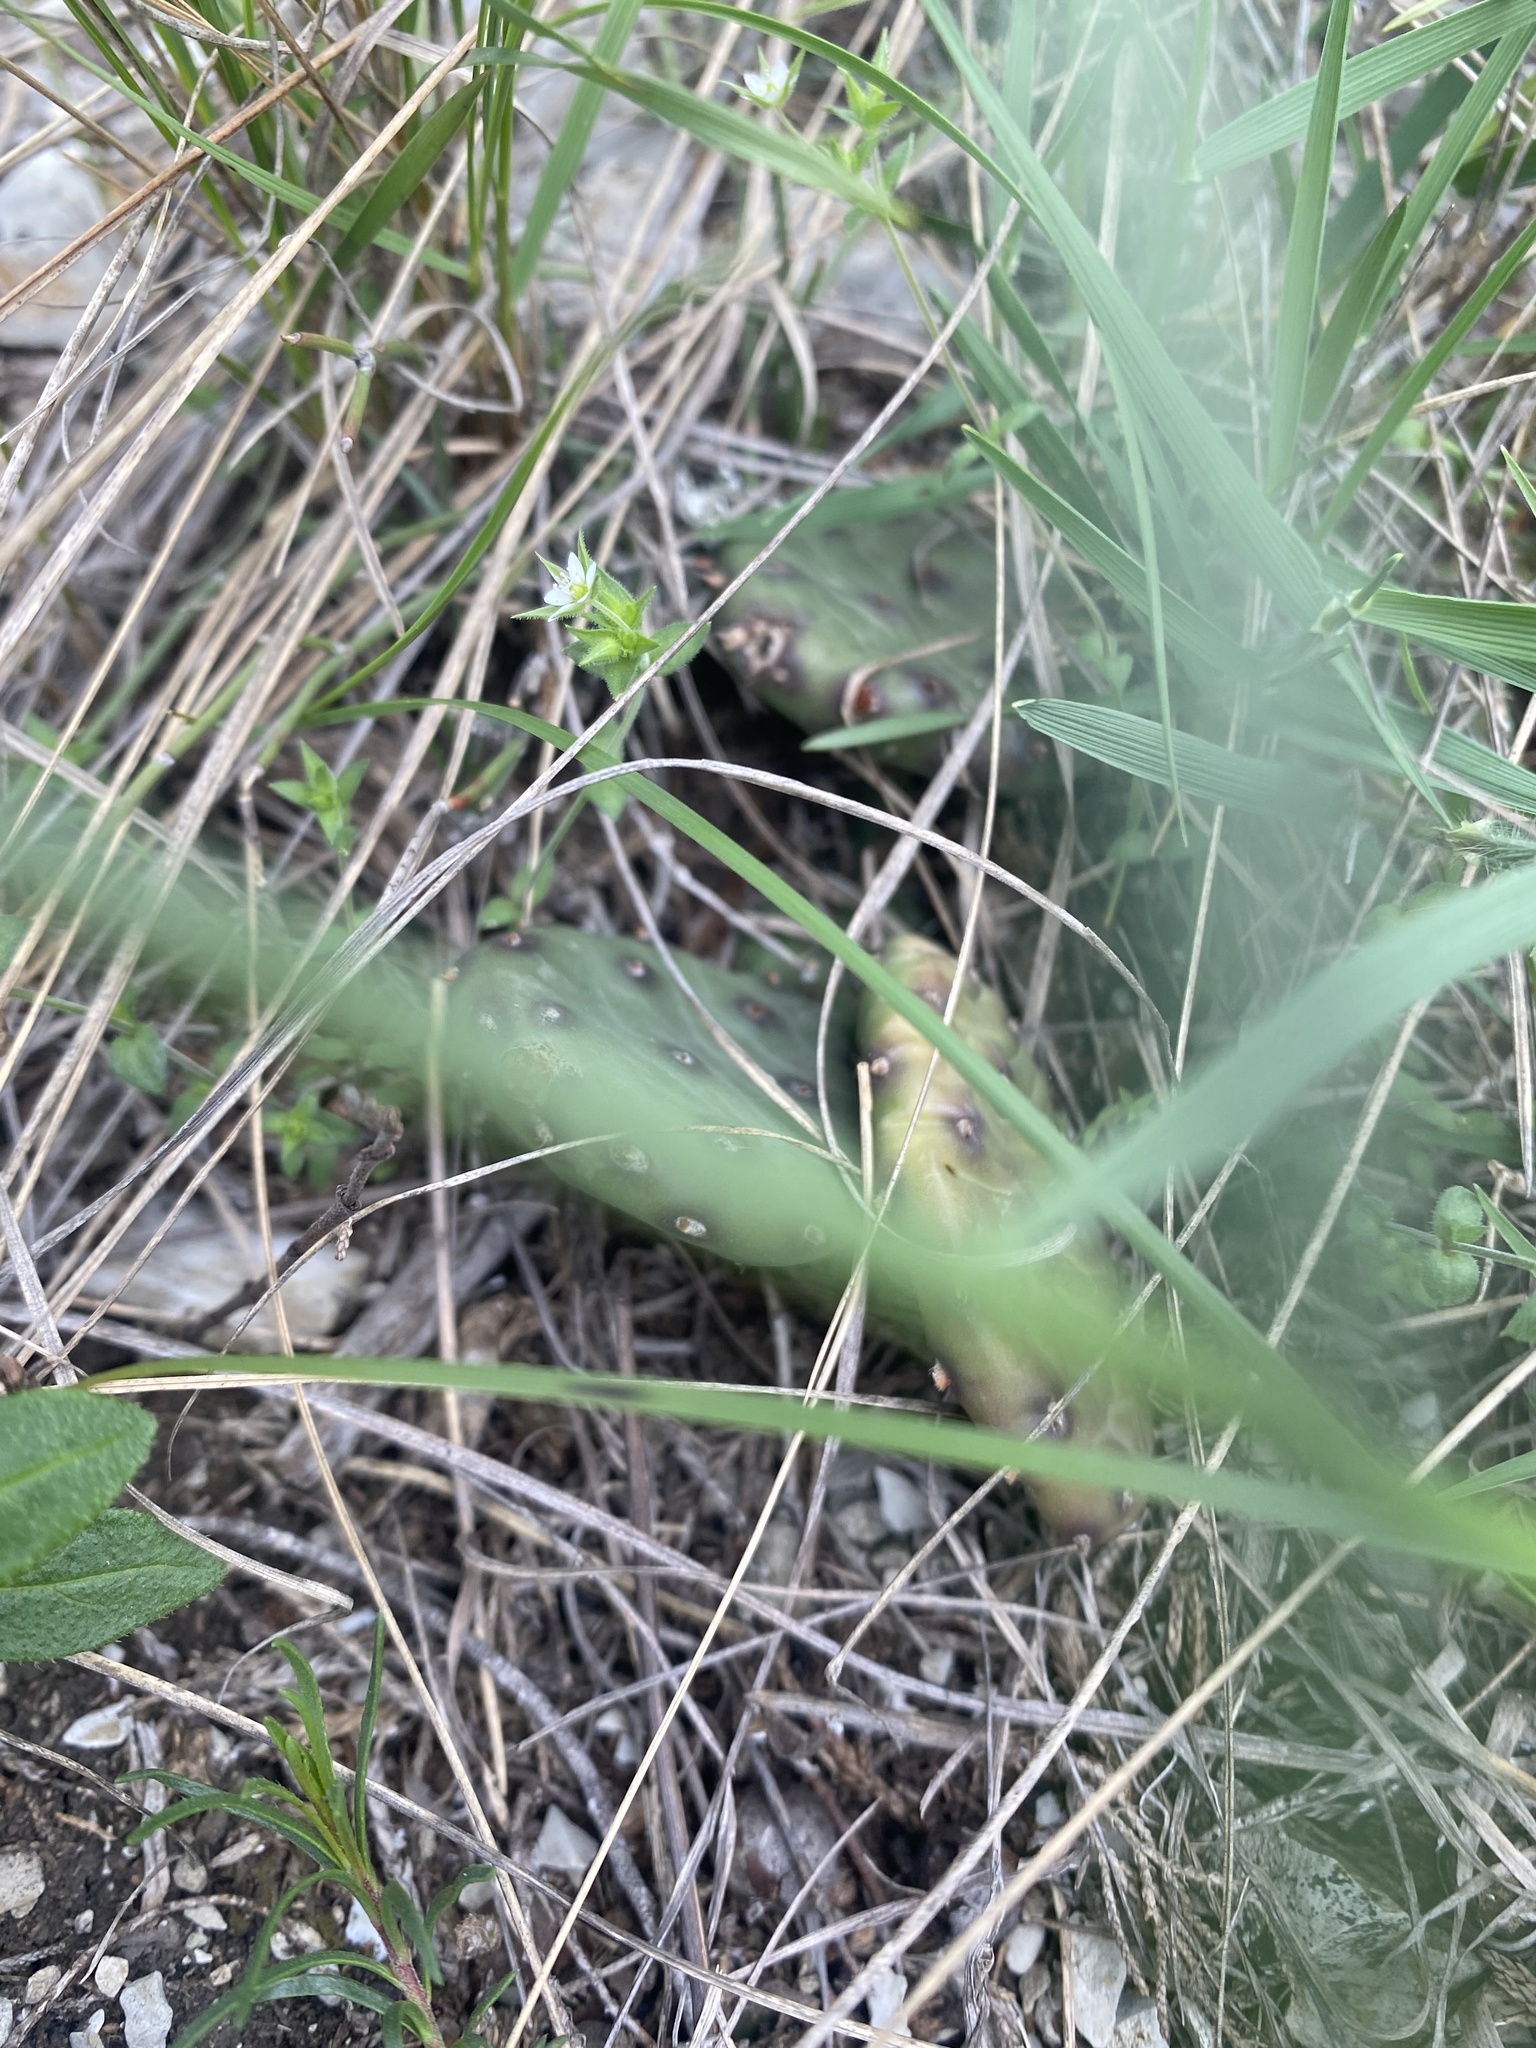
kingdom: Plantae
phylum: Tracheophyta
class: Magnoliopsida
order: Caryophyllales
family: Cactaceae
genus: Opuntia
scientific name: Opuntia humifusa
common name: Eastern prickly-pear
